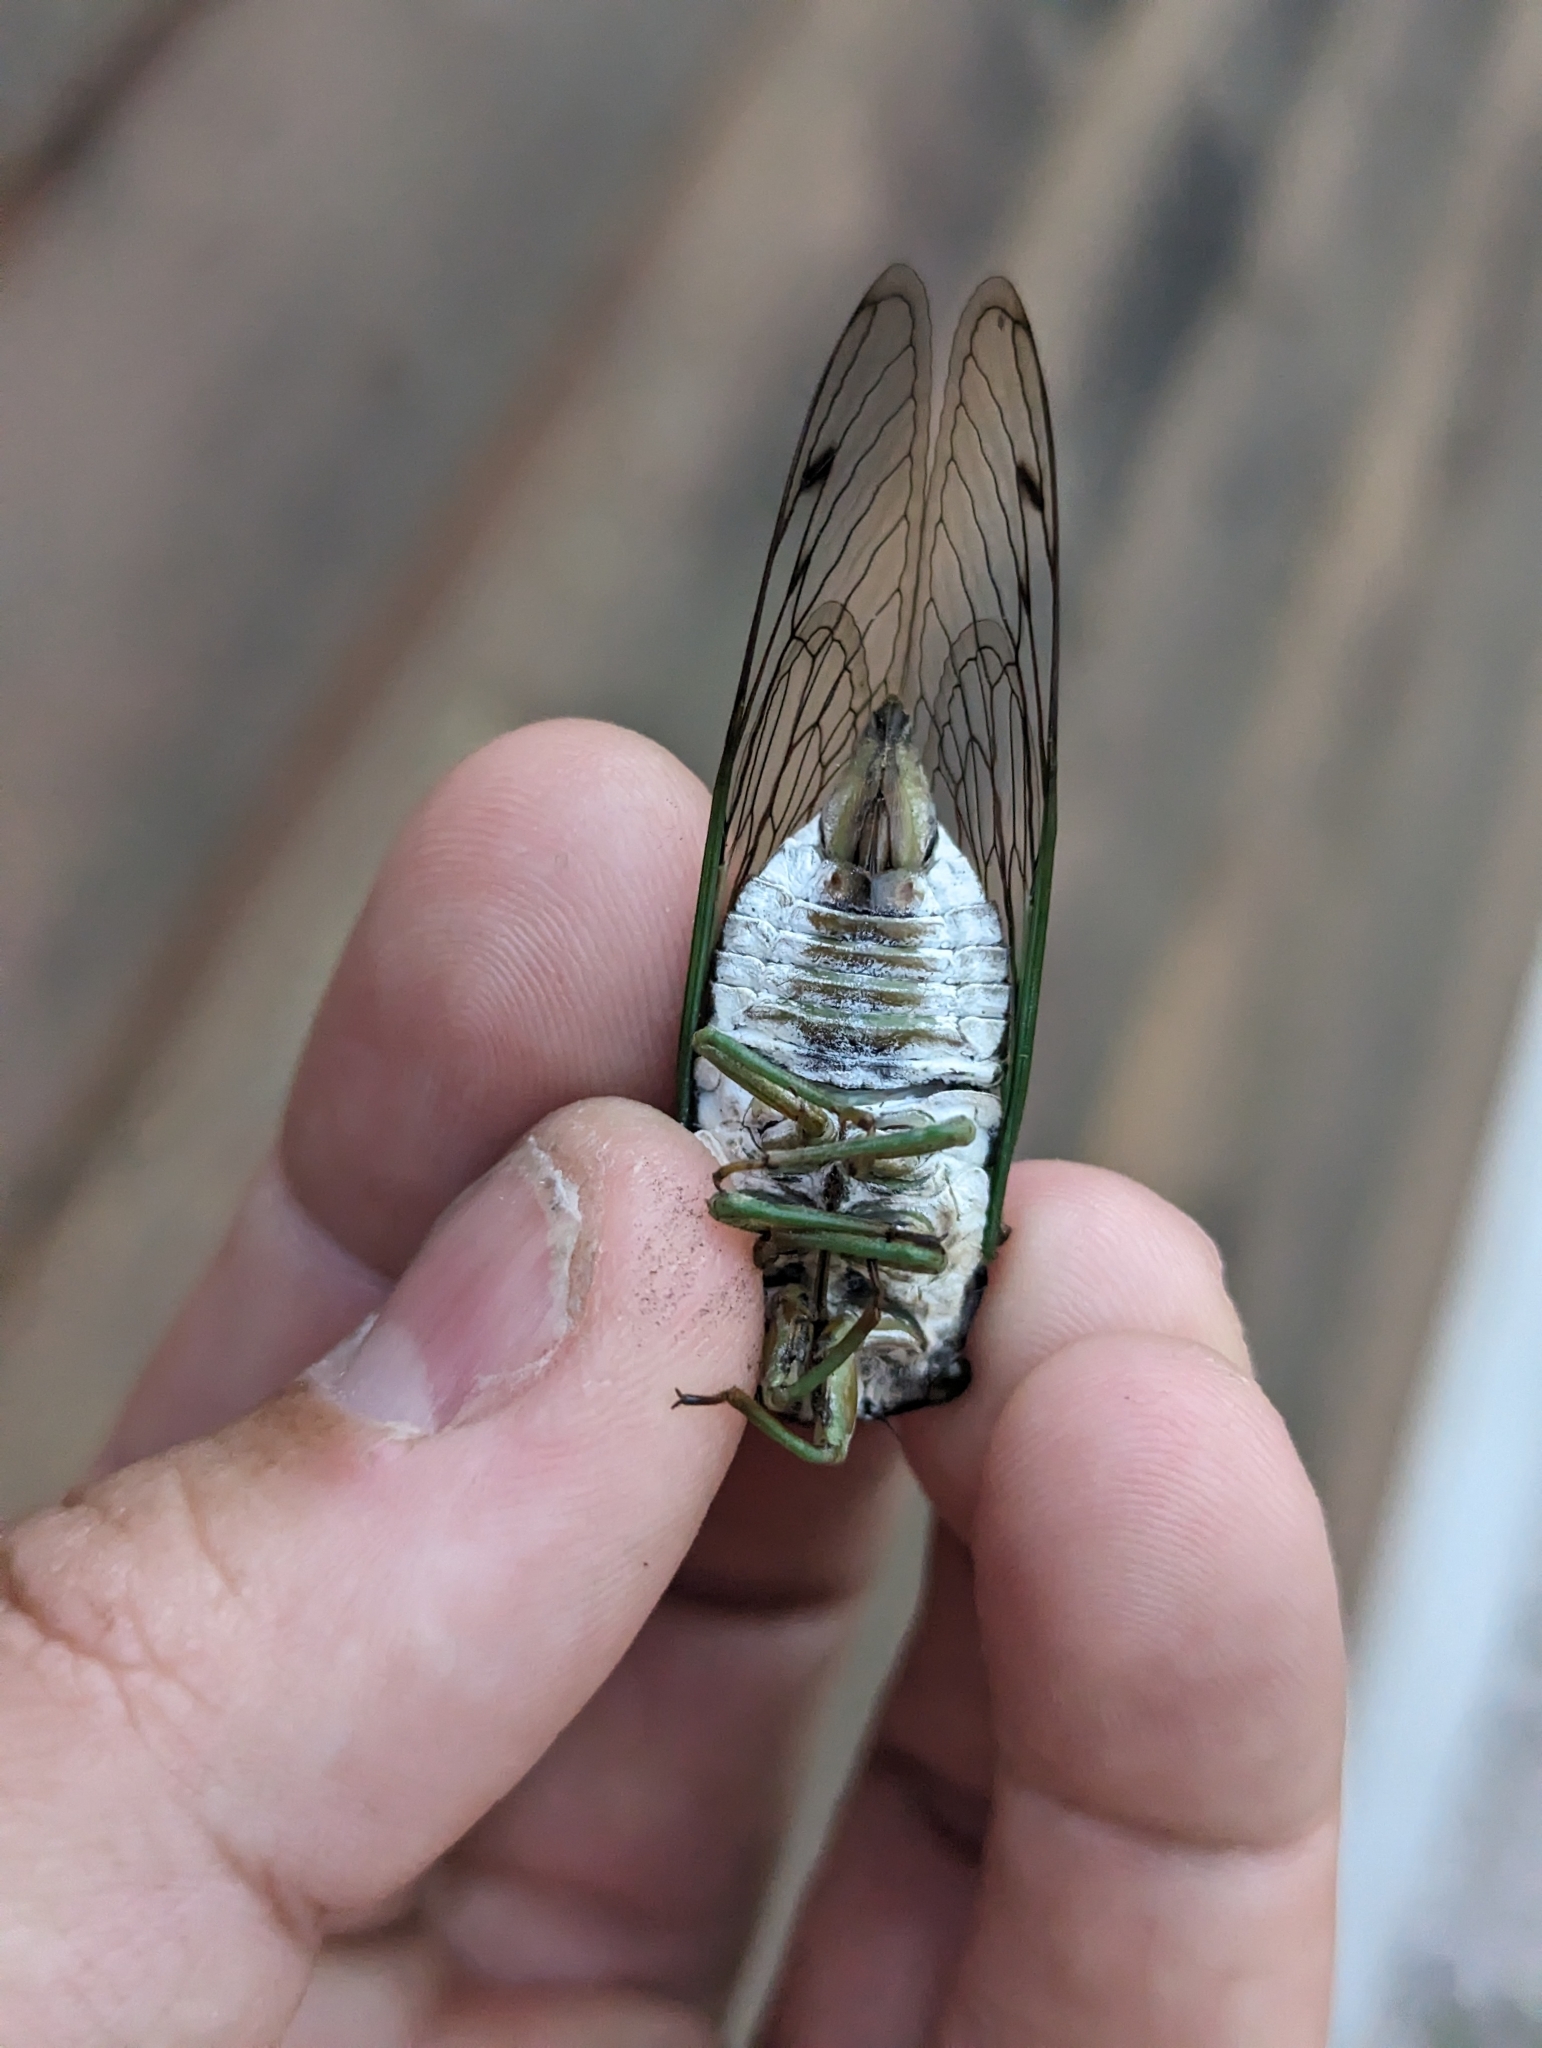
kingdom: Animalia
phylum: Arthropoda
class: Insecta
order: Hemiptera
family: Cicadidae
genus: Neotibicen
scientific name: Neotibicen tibicen
